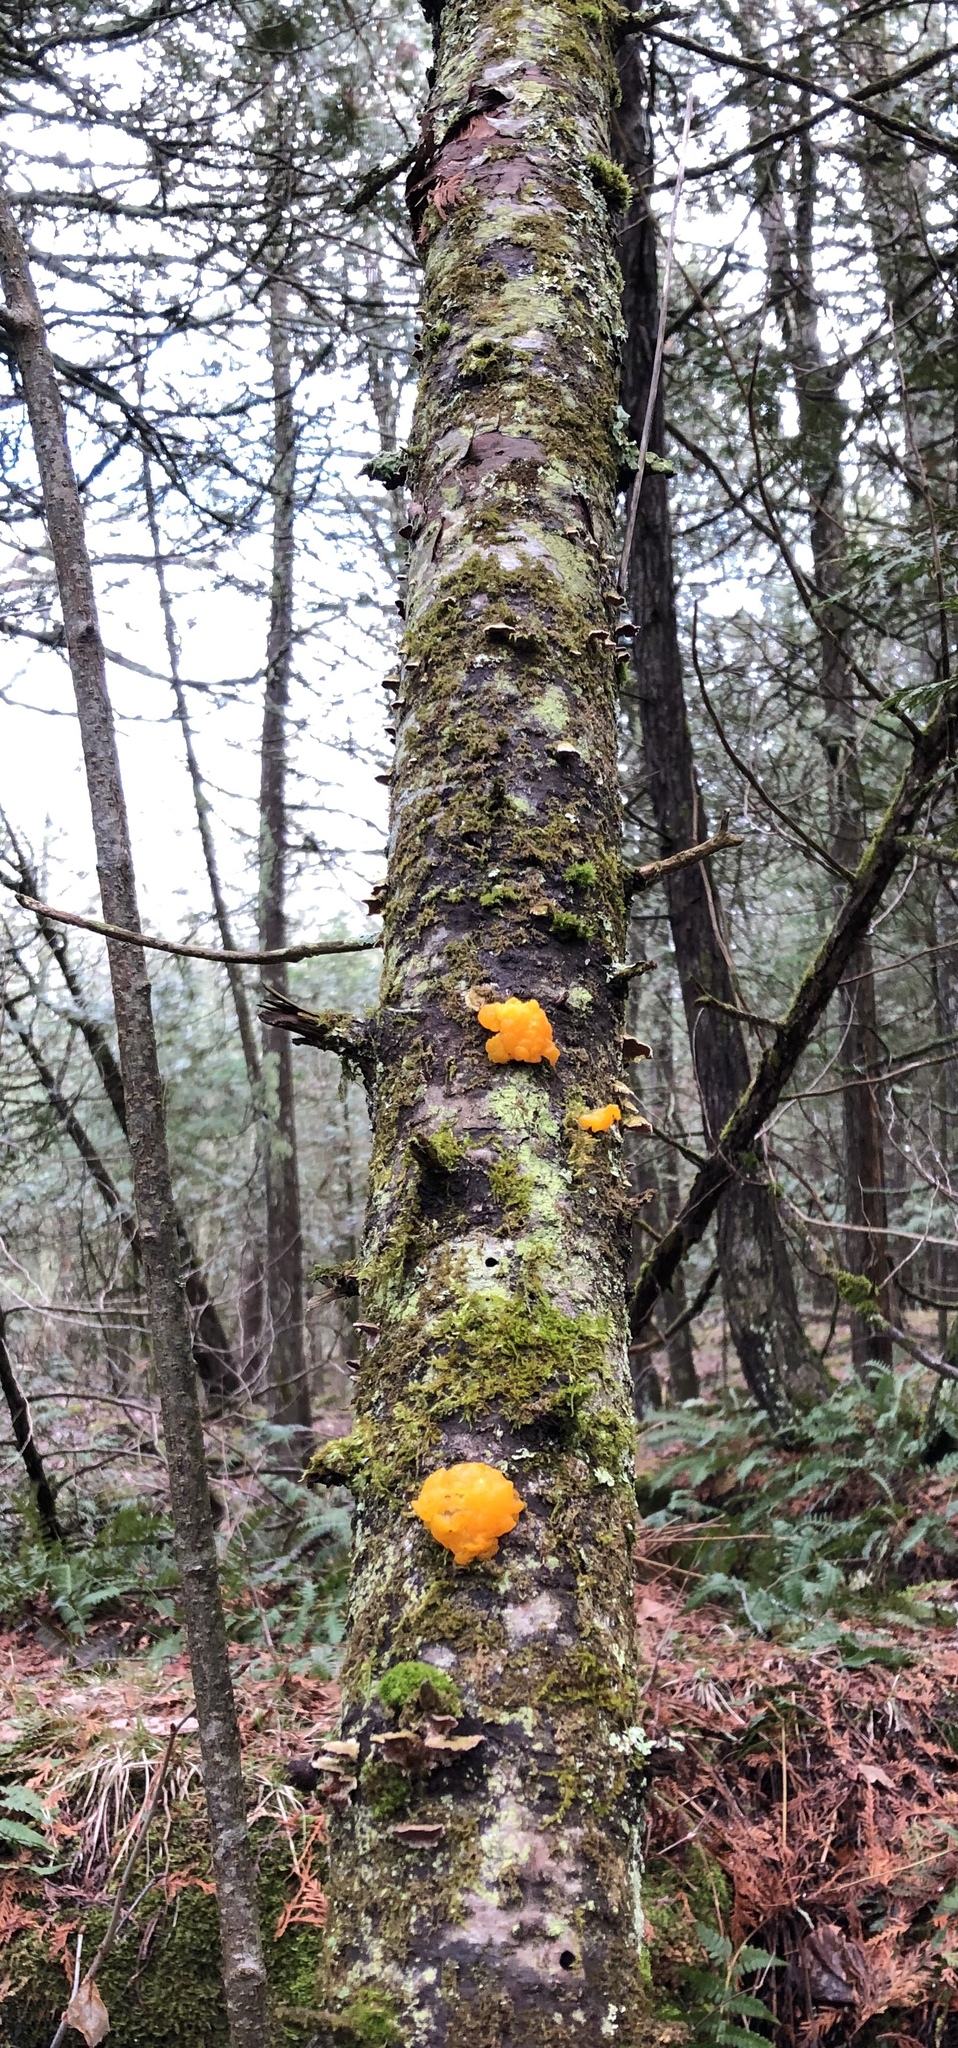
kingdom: Fungi
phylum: Basidiomycota
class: Dacrymycetes
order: Dacrymycetales
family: Dacrymycetaceae
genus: Dacrymyces
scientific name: Dacrymyces chrysospermus
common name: Orange jelly spot
